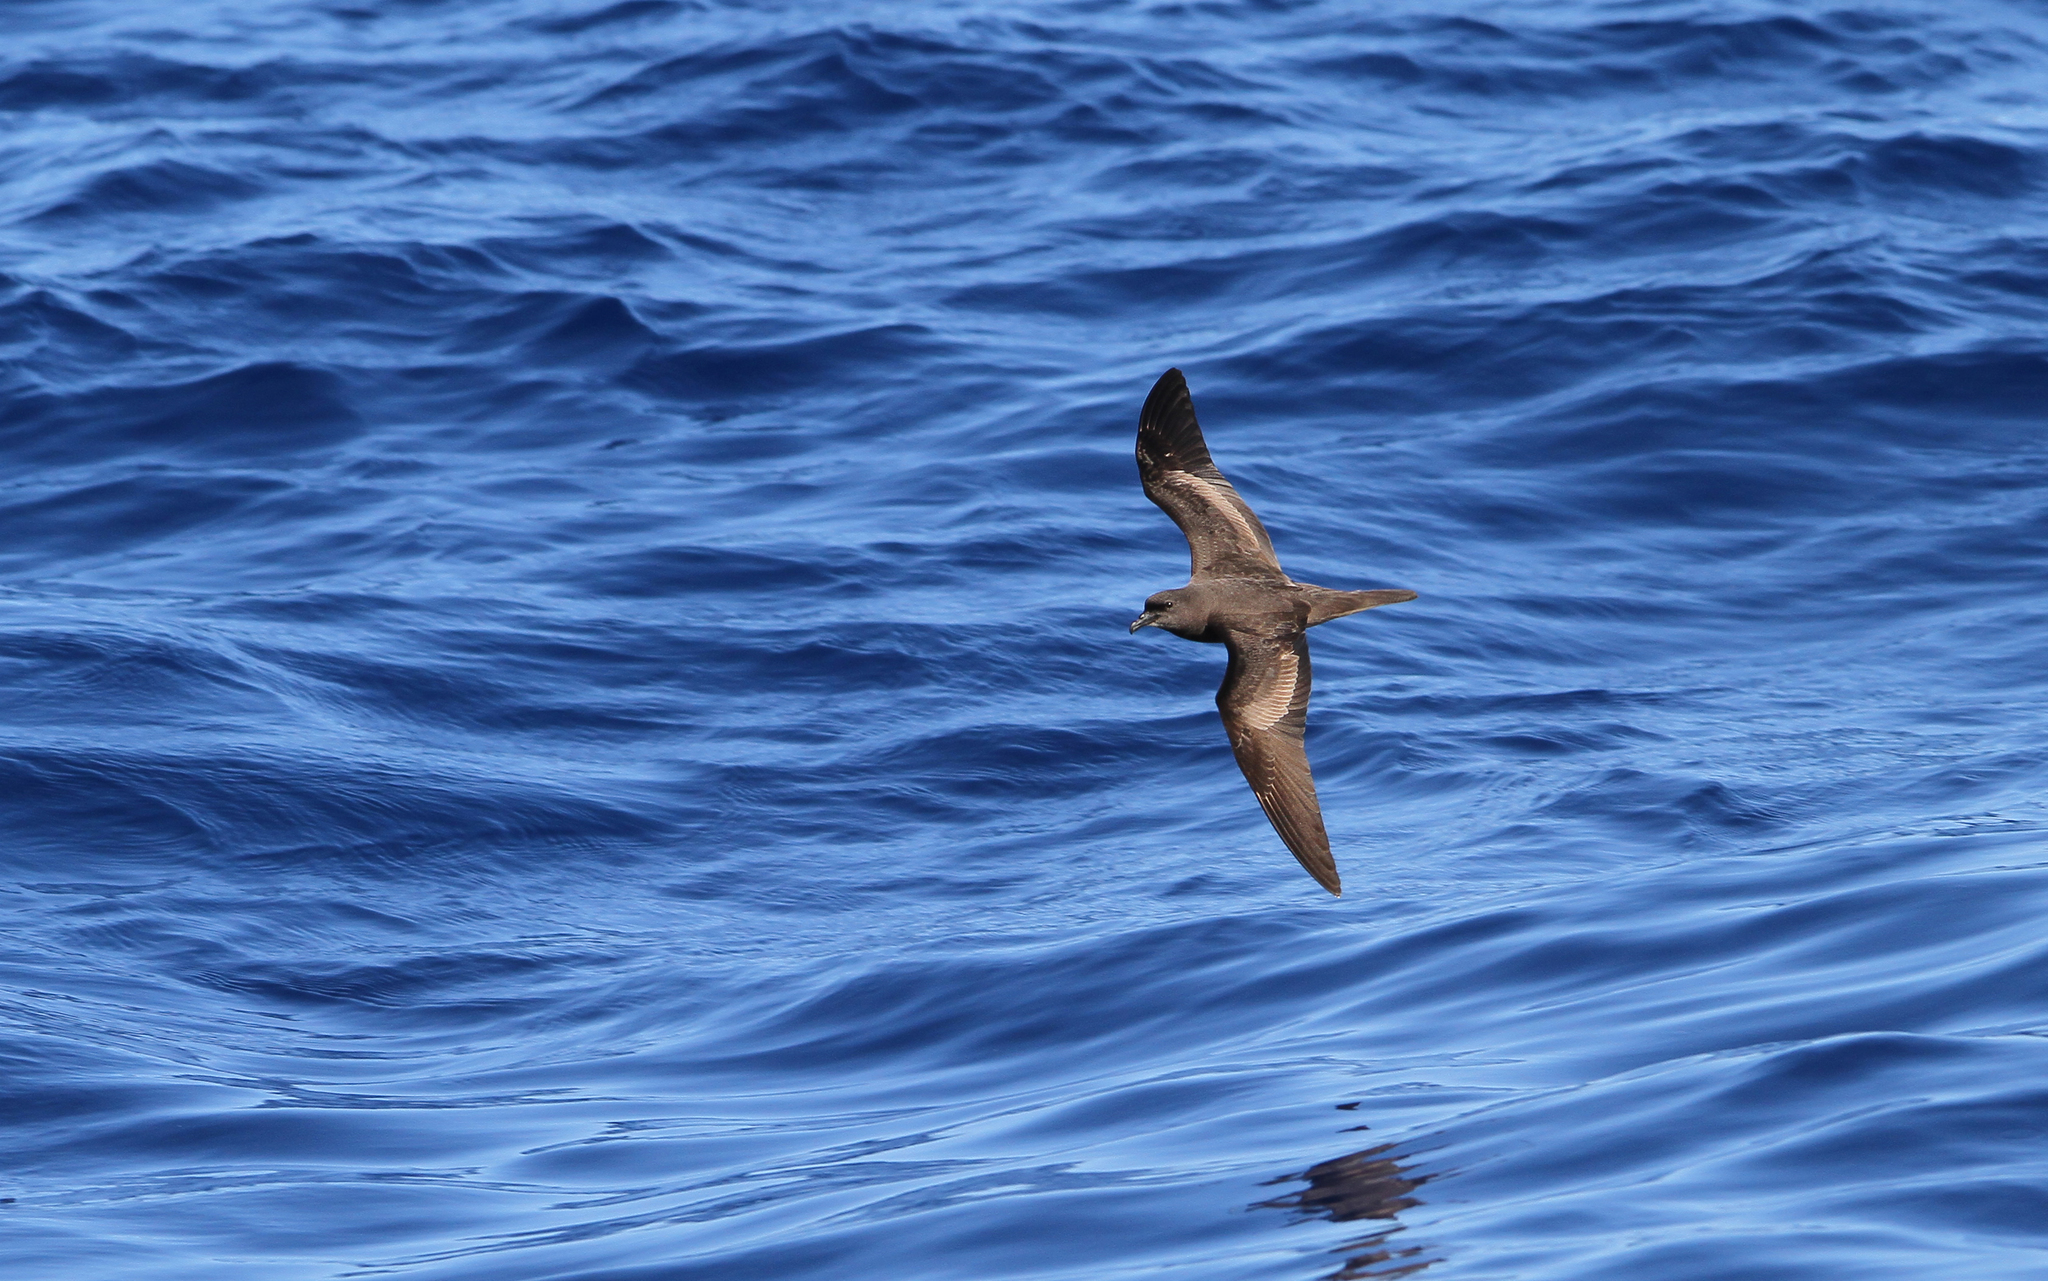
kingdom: Animalia
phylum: Chordata
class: Aves
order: Procellariiformes
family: Procellariidae
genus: Bulweria
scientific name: Bulweria bulwerii
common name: Bulwer's petrel
